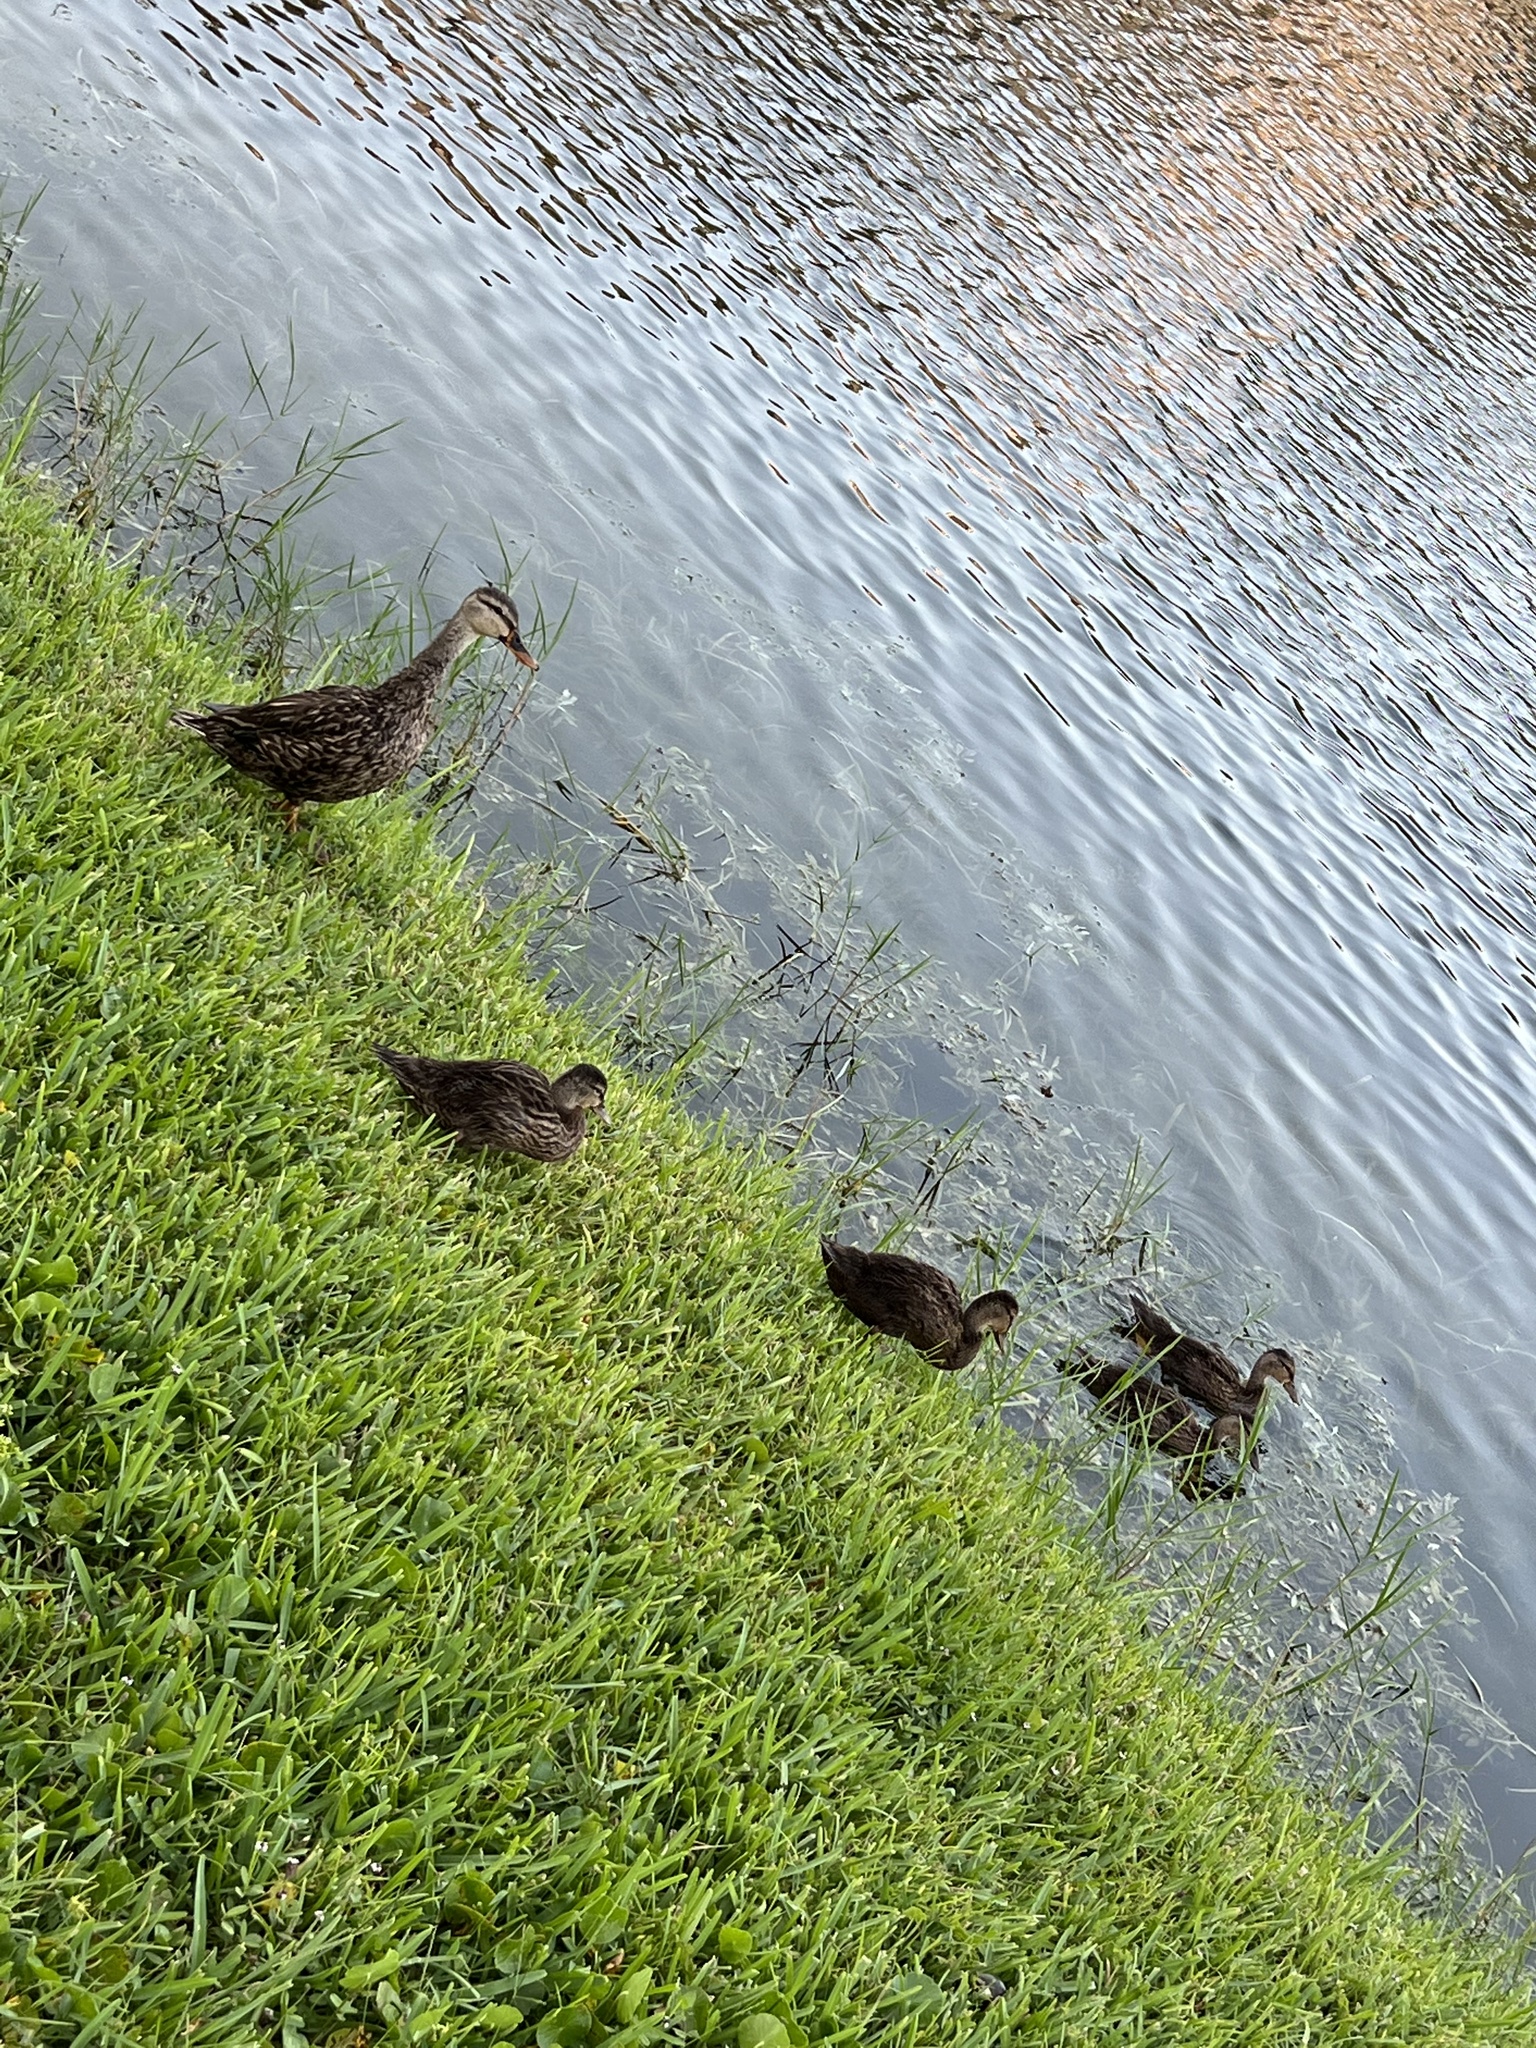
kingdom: Animalia
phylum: Chordata
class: Aves
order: Anseriformes
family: Anatidae
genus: Anas
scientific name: Anas
